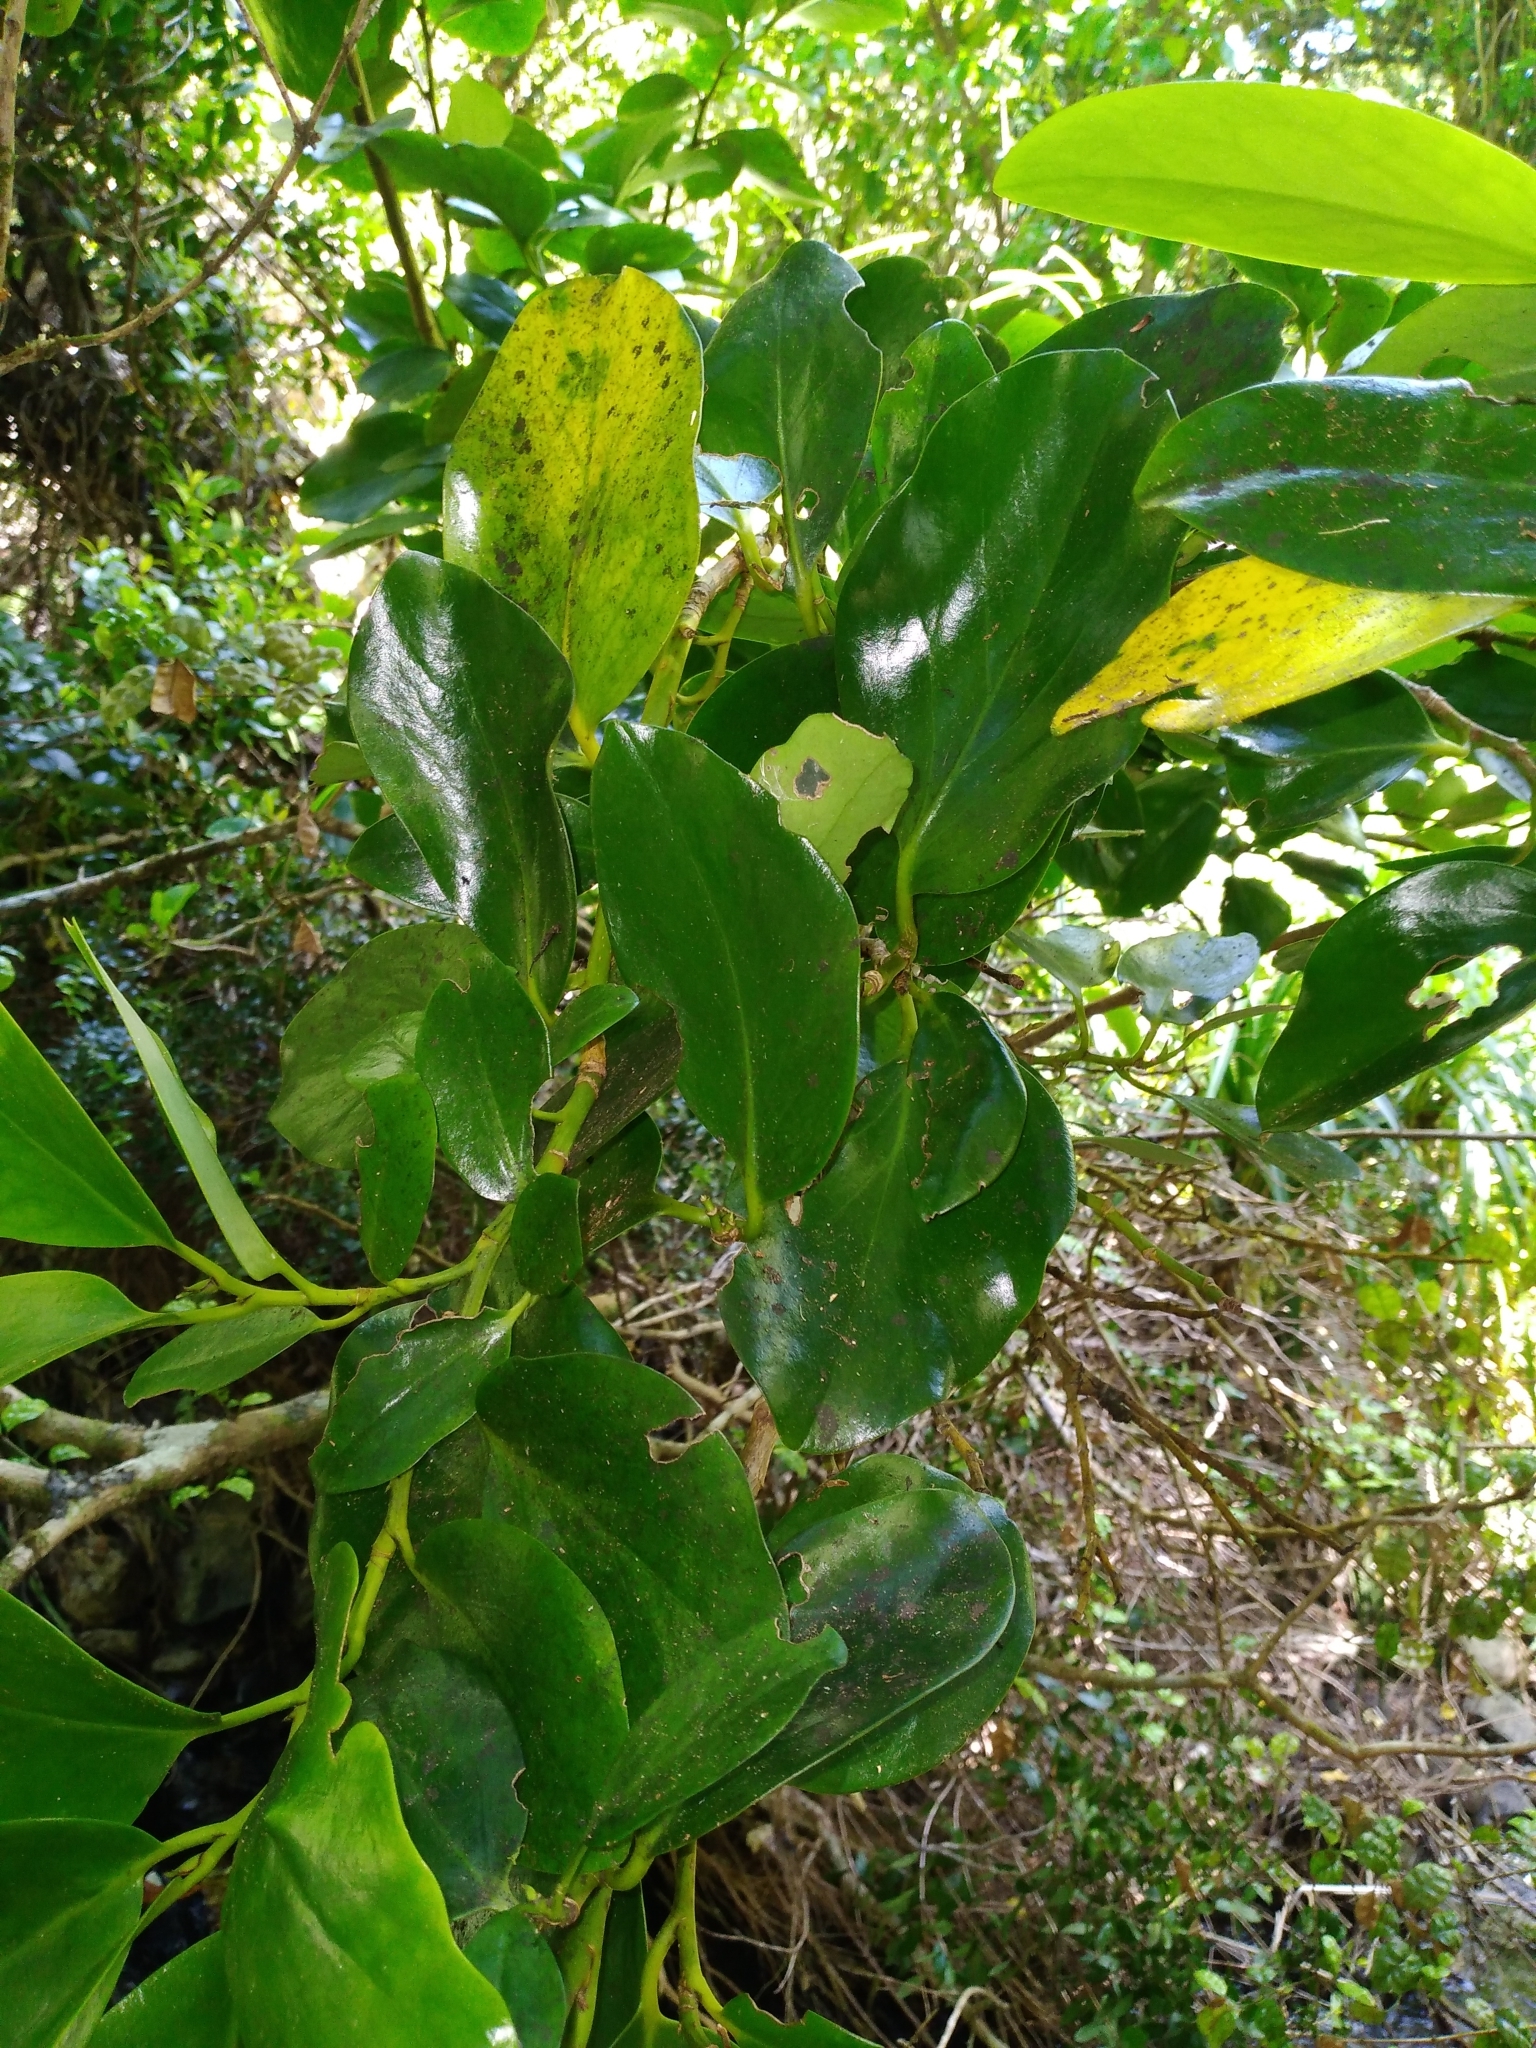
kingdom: Plantae
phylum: Tracheophyta
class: Magnoliopsida
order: Apiales
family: Griseliniaceae
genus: Griselinia
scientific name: Griselinia lucida
